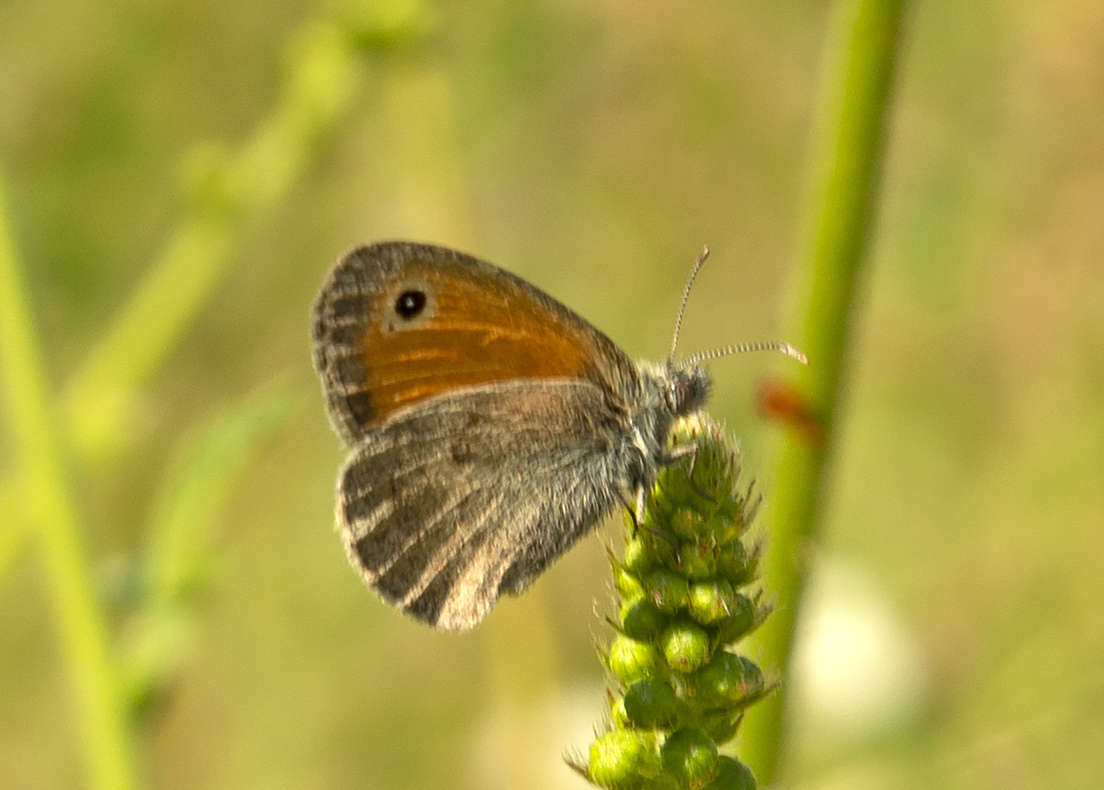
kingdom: Animalia
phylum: Arthropoda
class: Insecta
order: Lepidoptera
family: Nymphalidae
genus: Coenonympha
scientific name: Coenonympha pamphilus
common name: Small heath
